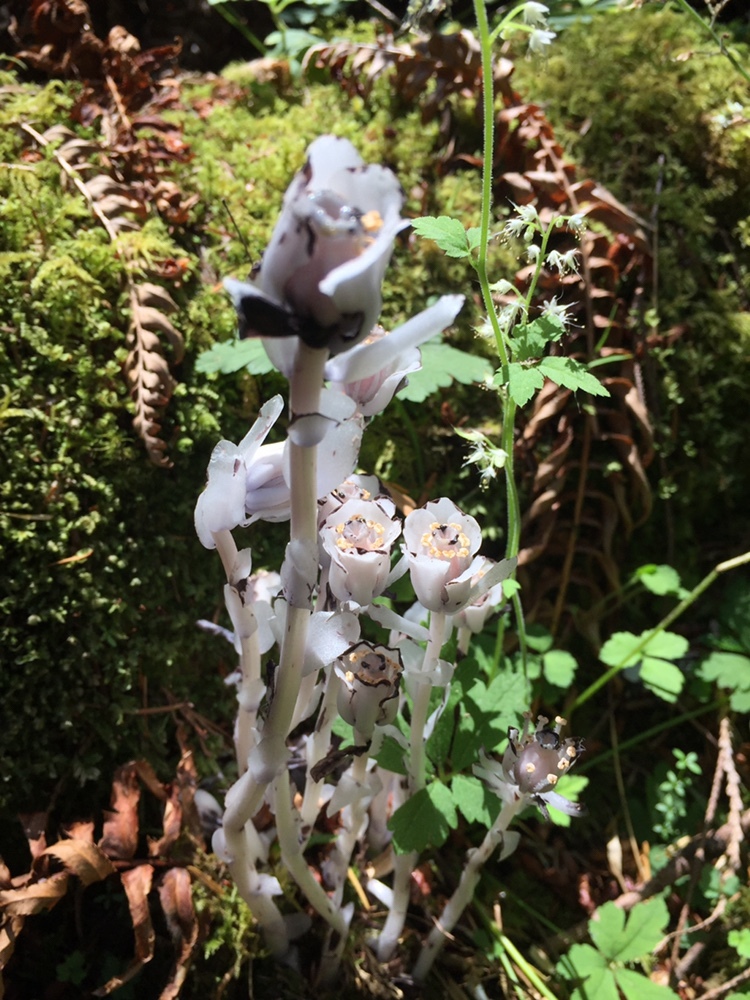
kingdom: Plantae
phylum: Tracheophyta
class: Magnoliopsida
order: Ericales
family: Ericaceae
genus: Monotropa
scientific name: Monotropa uniflora
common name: Convulsion root
